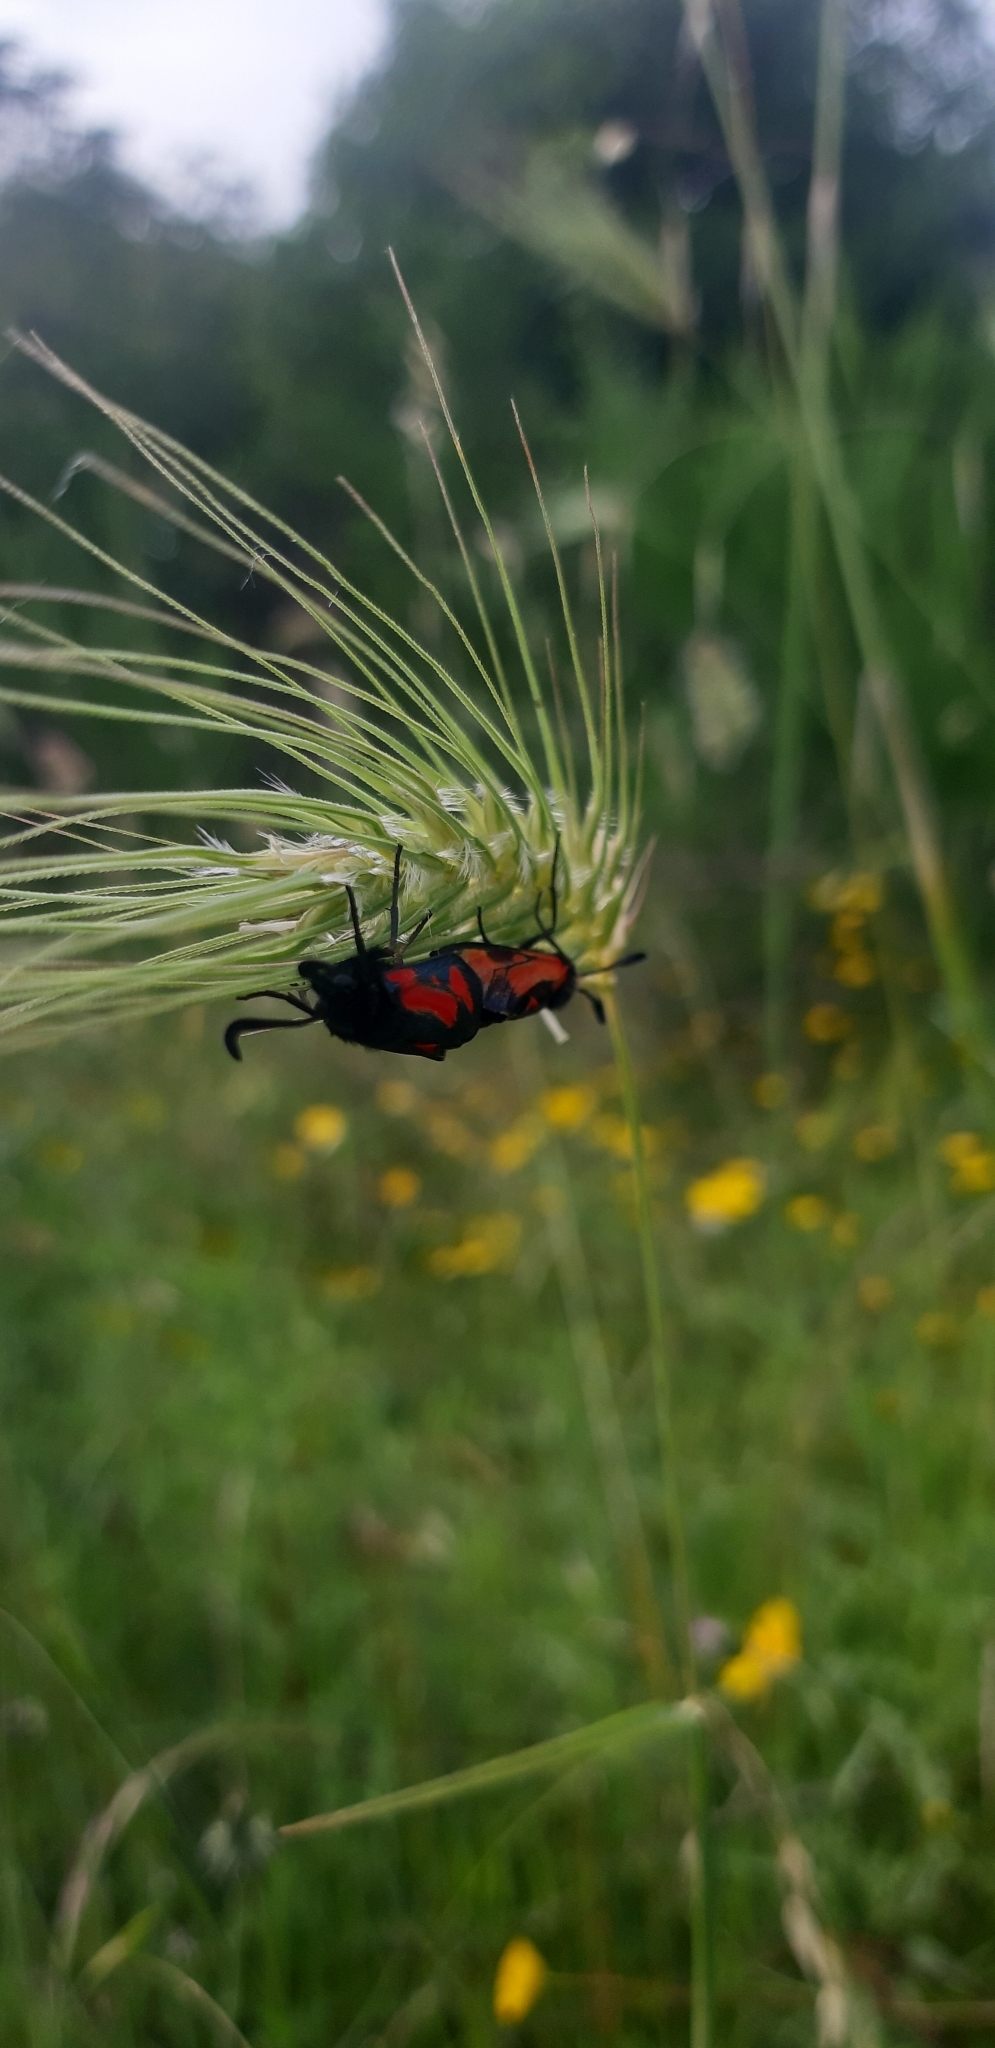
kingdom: Animalia
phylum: Arthropoda
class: Insecta
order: Lepidoptera
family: Zygaenidae
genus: Zygaena
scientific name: Zygaena punctum
